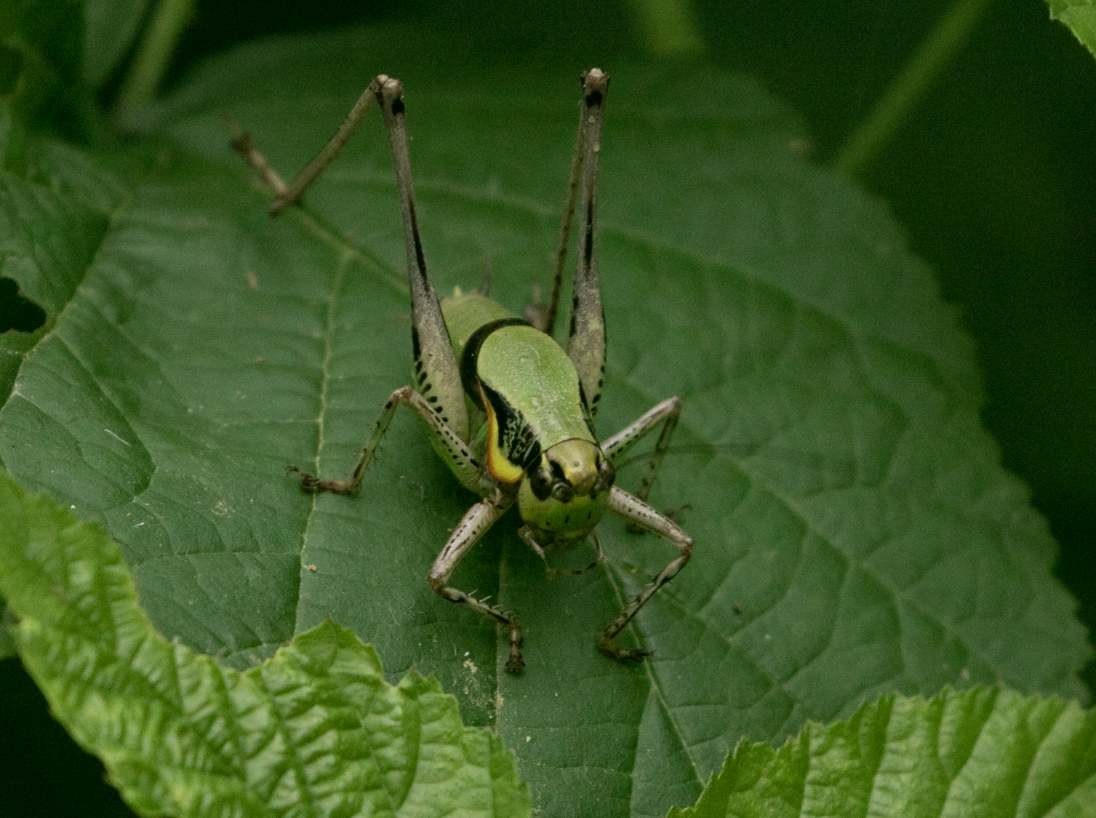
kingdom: Animalia
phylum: Arthropoda
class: Insecta
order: Orthoptera
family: Tettigoniidae
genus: Eupholidoptera
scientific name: Eupholidoptera chabrieri
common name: Chabrier's marbled bush-cricket
